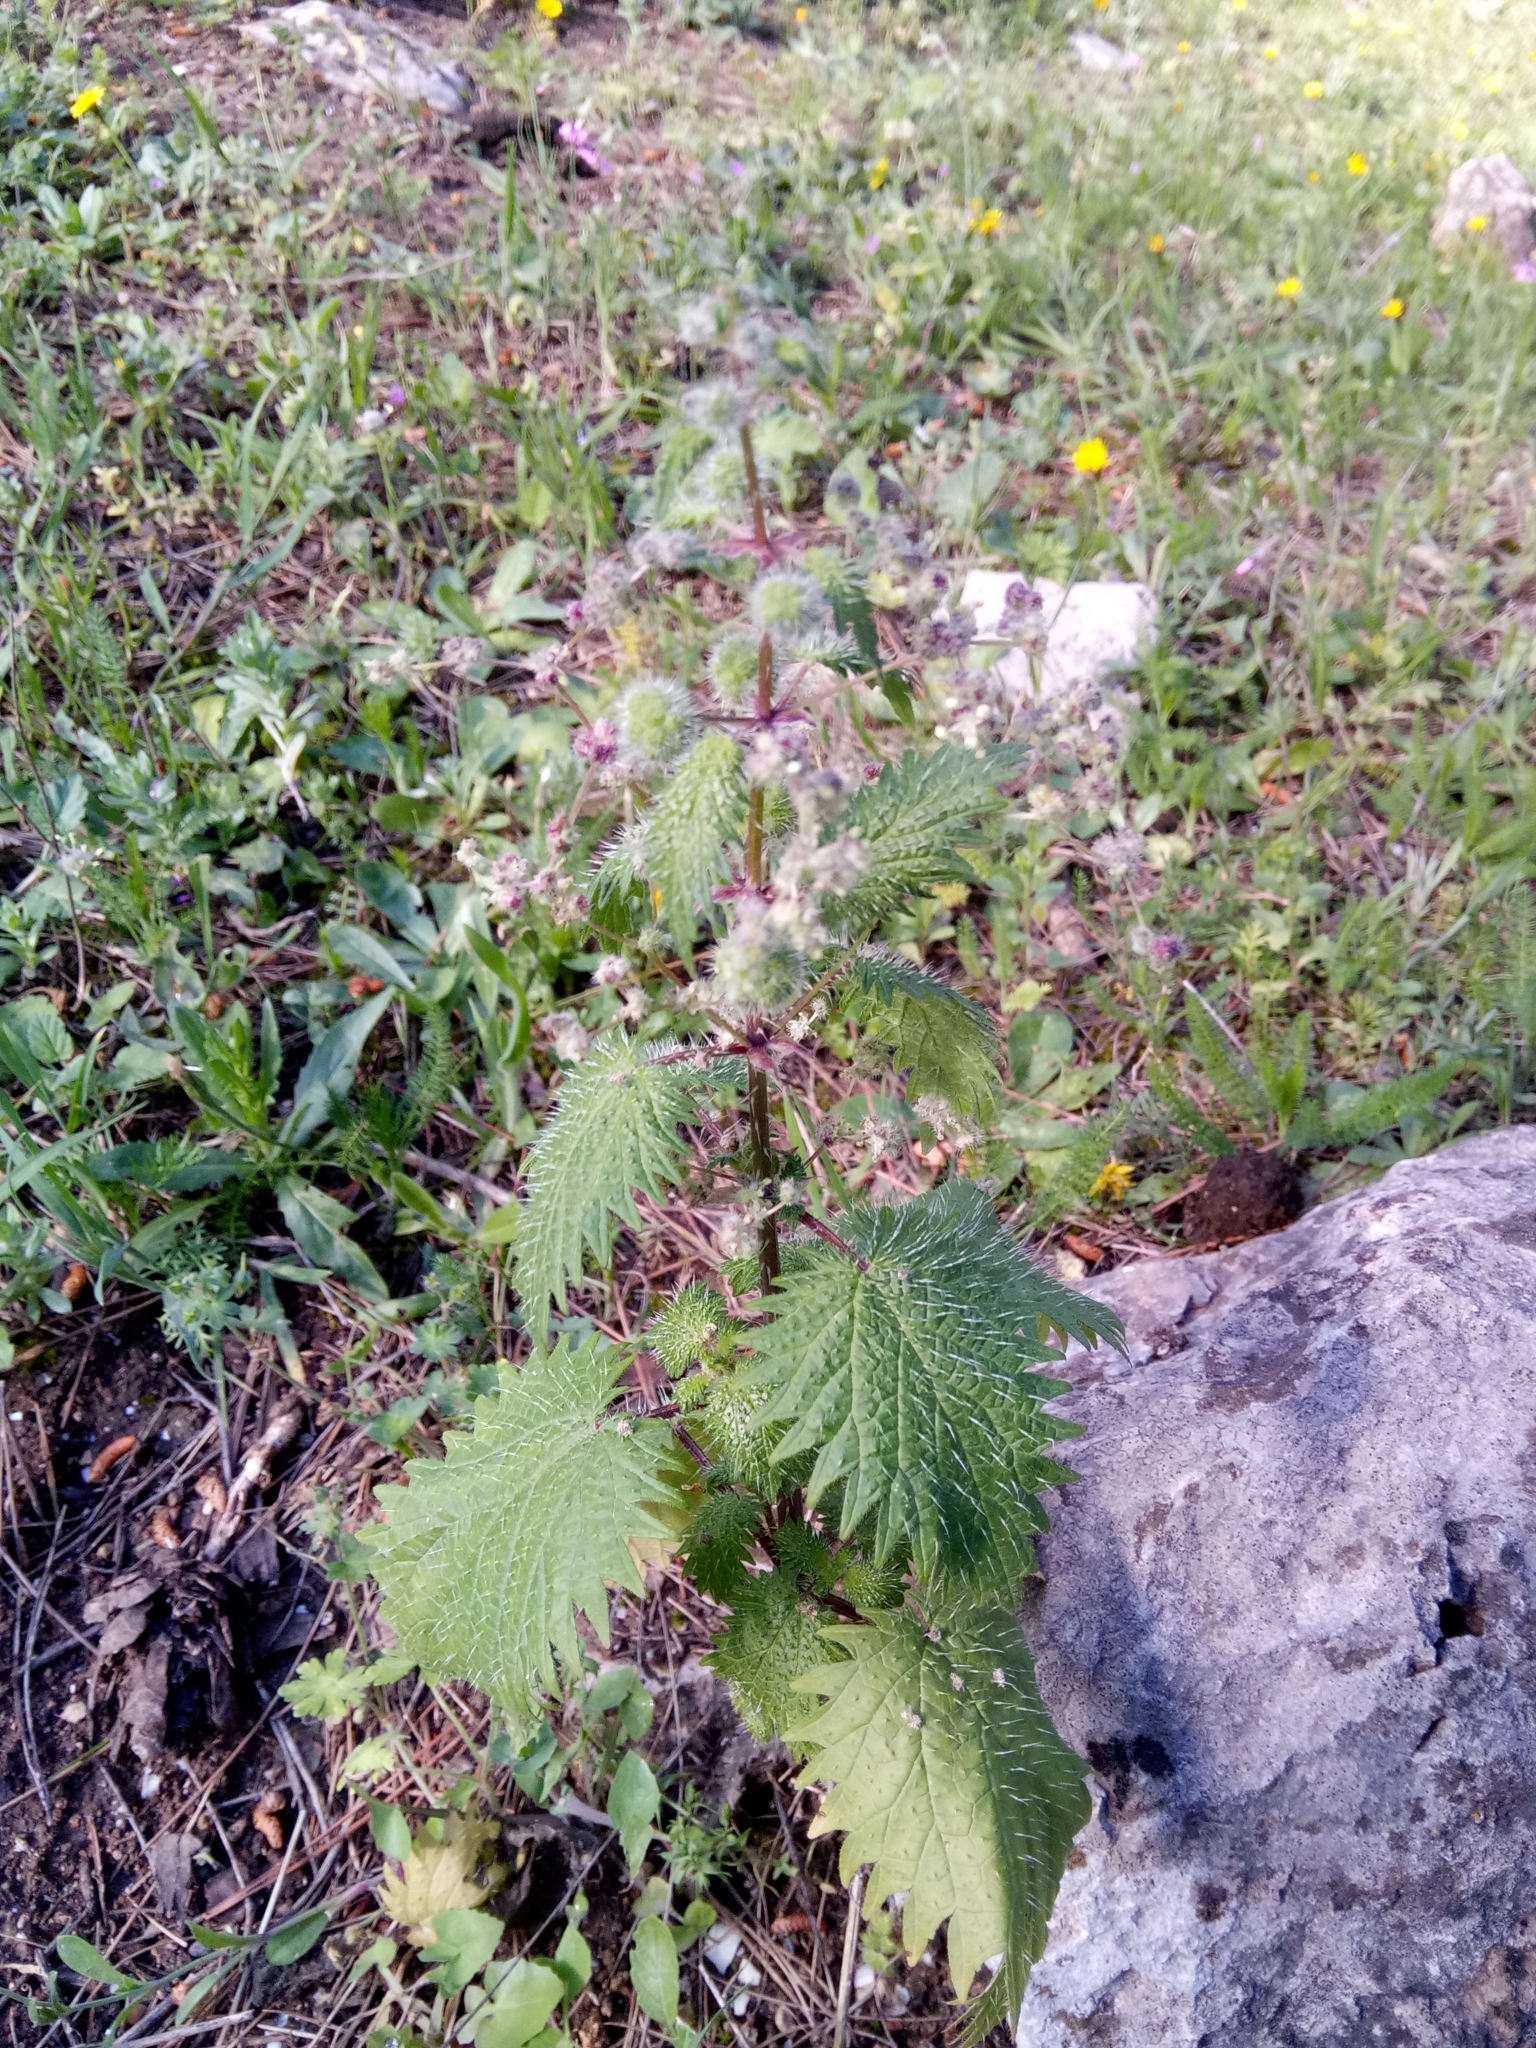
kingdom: Plantae
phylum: Tracheophyta
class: Magnoliopsida
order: Rosales
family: Urticaceae
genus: Urtica
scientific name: Urtica pilulifera
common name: Roman nettle
